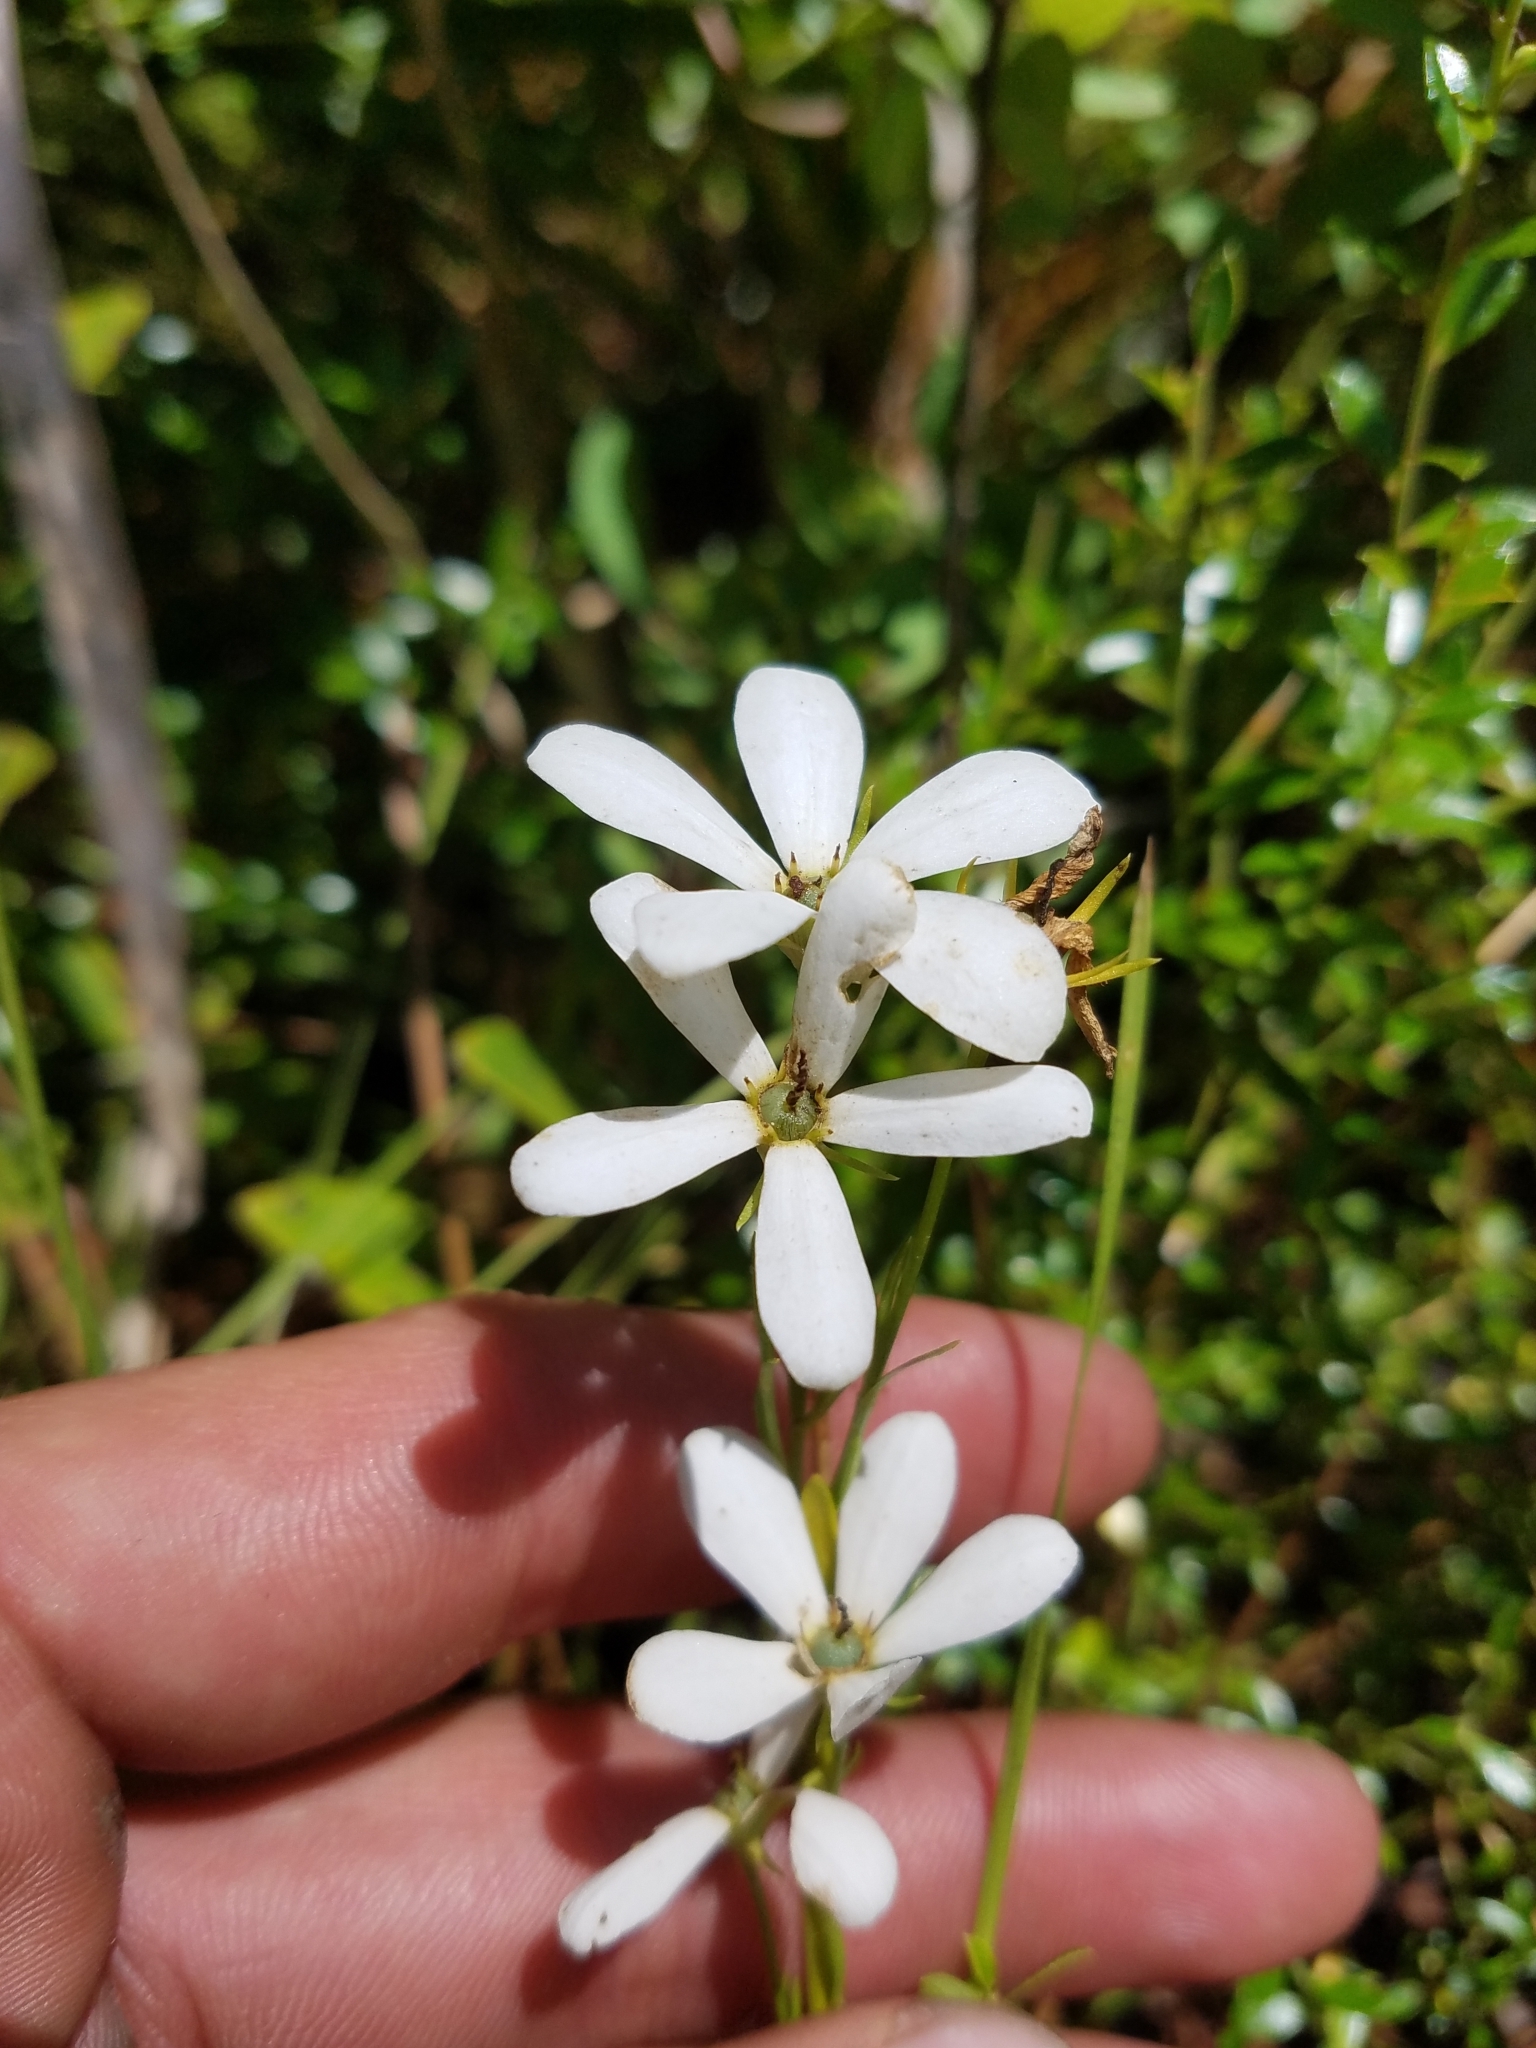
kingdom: Plantae
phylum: Tracheophyta
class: Magnoliopsida
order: Gentianales
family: Gentianaceae
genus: Sabatia
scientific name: Sabatia brevifolia
